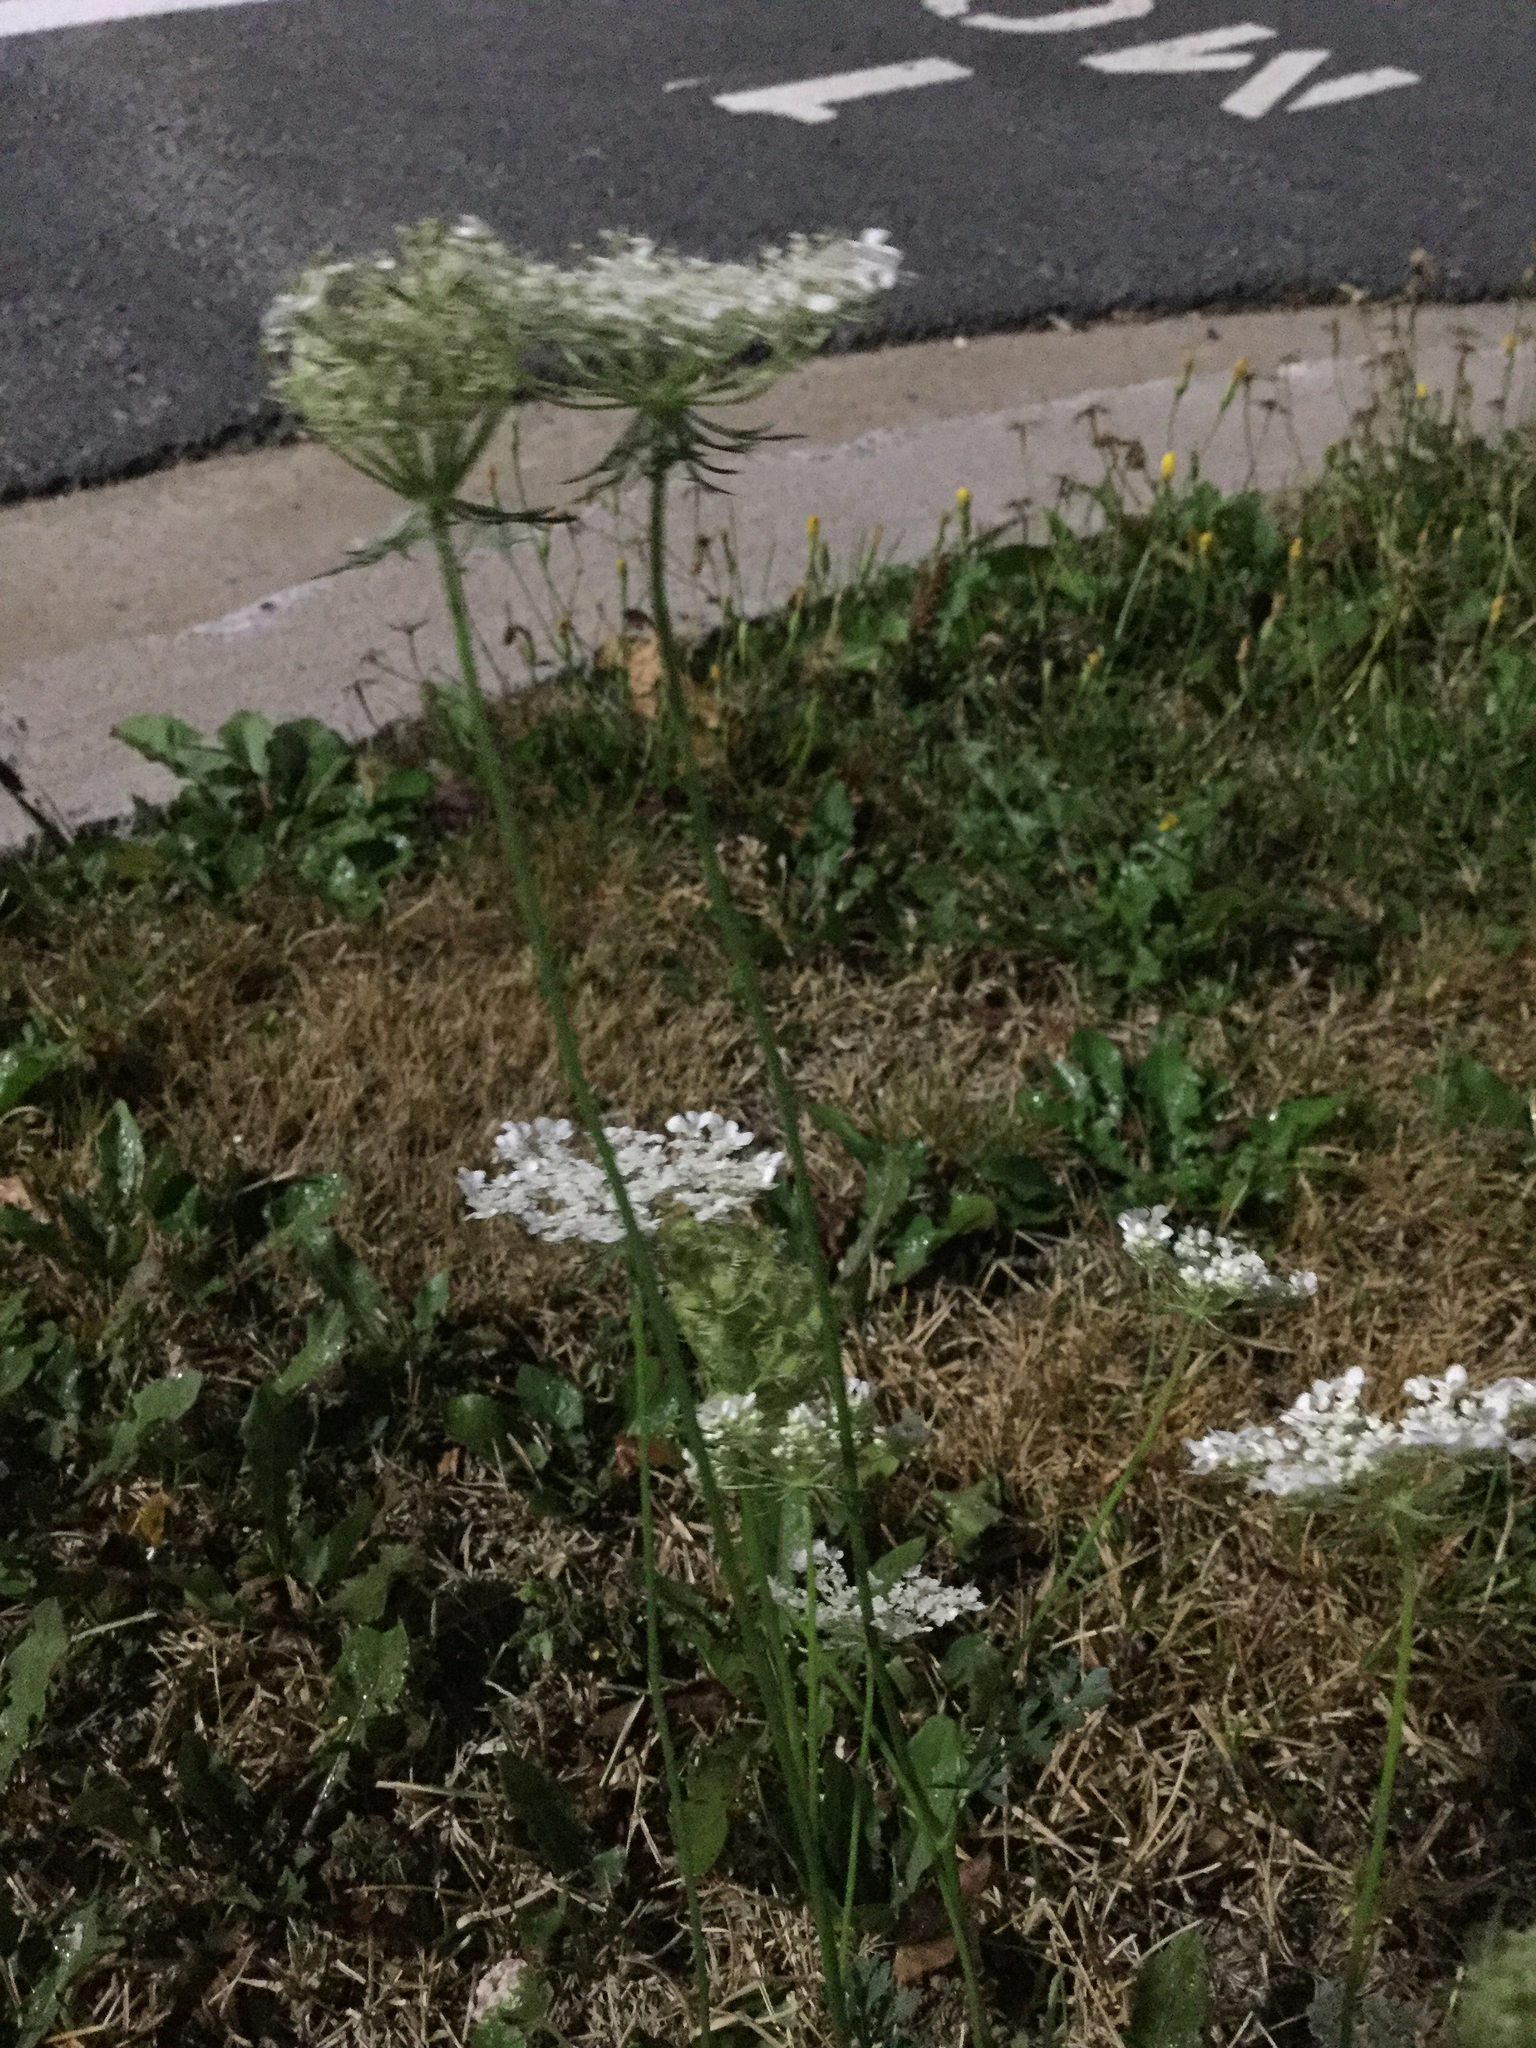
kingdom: Plantae
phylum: Tracheophyta
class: Magnoliopsida
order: Apiales
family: Apiaceae
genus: Daucus
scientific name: Daucus carota
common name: Wild carrot
